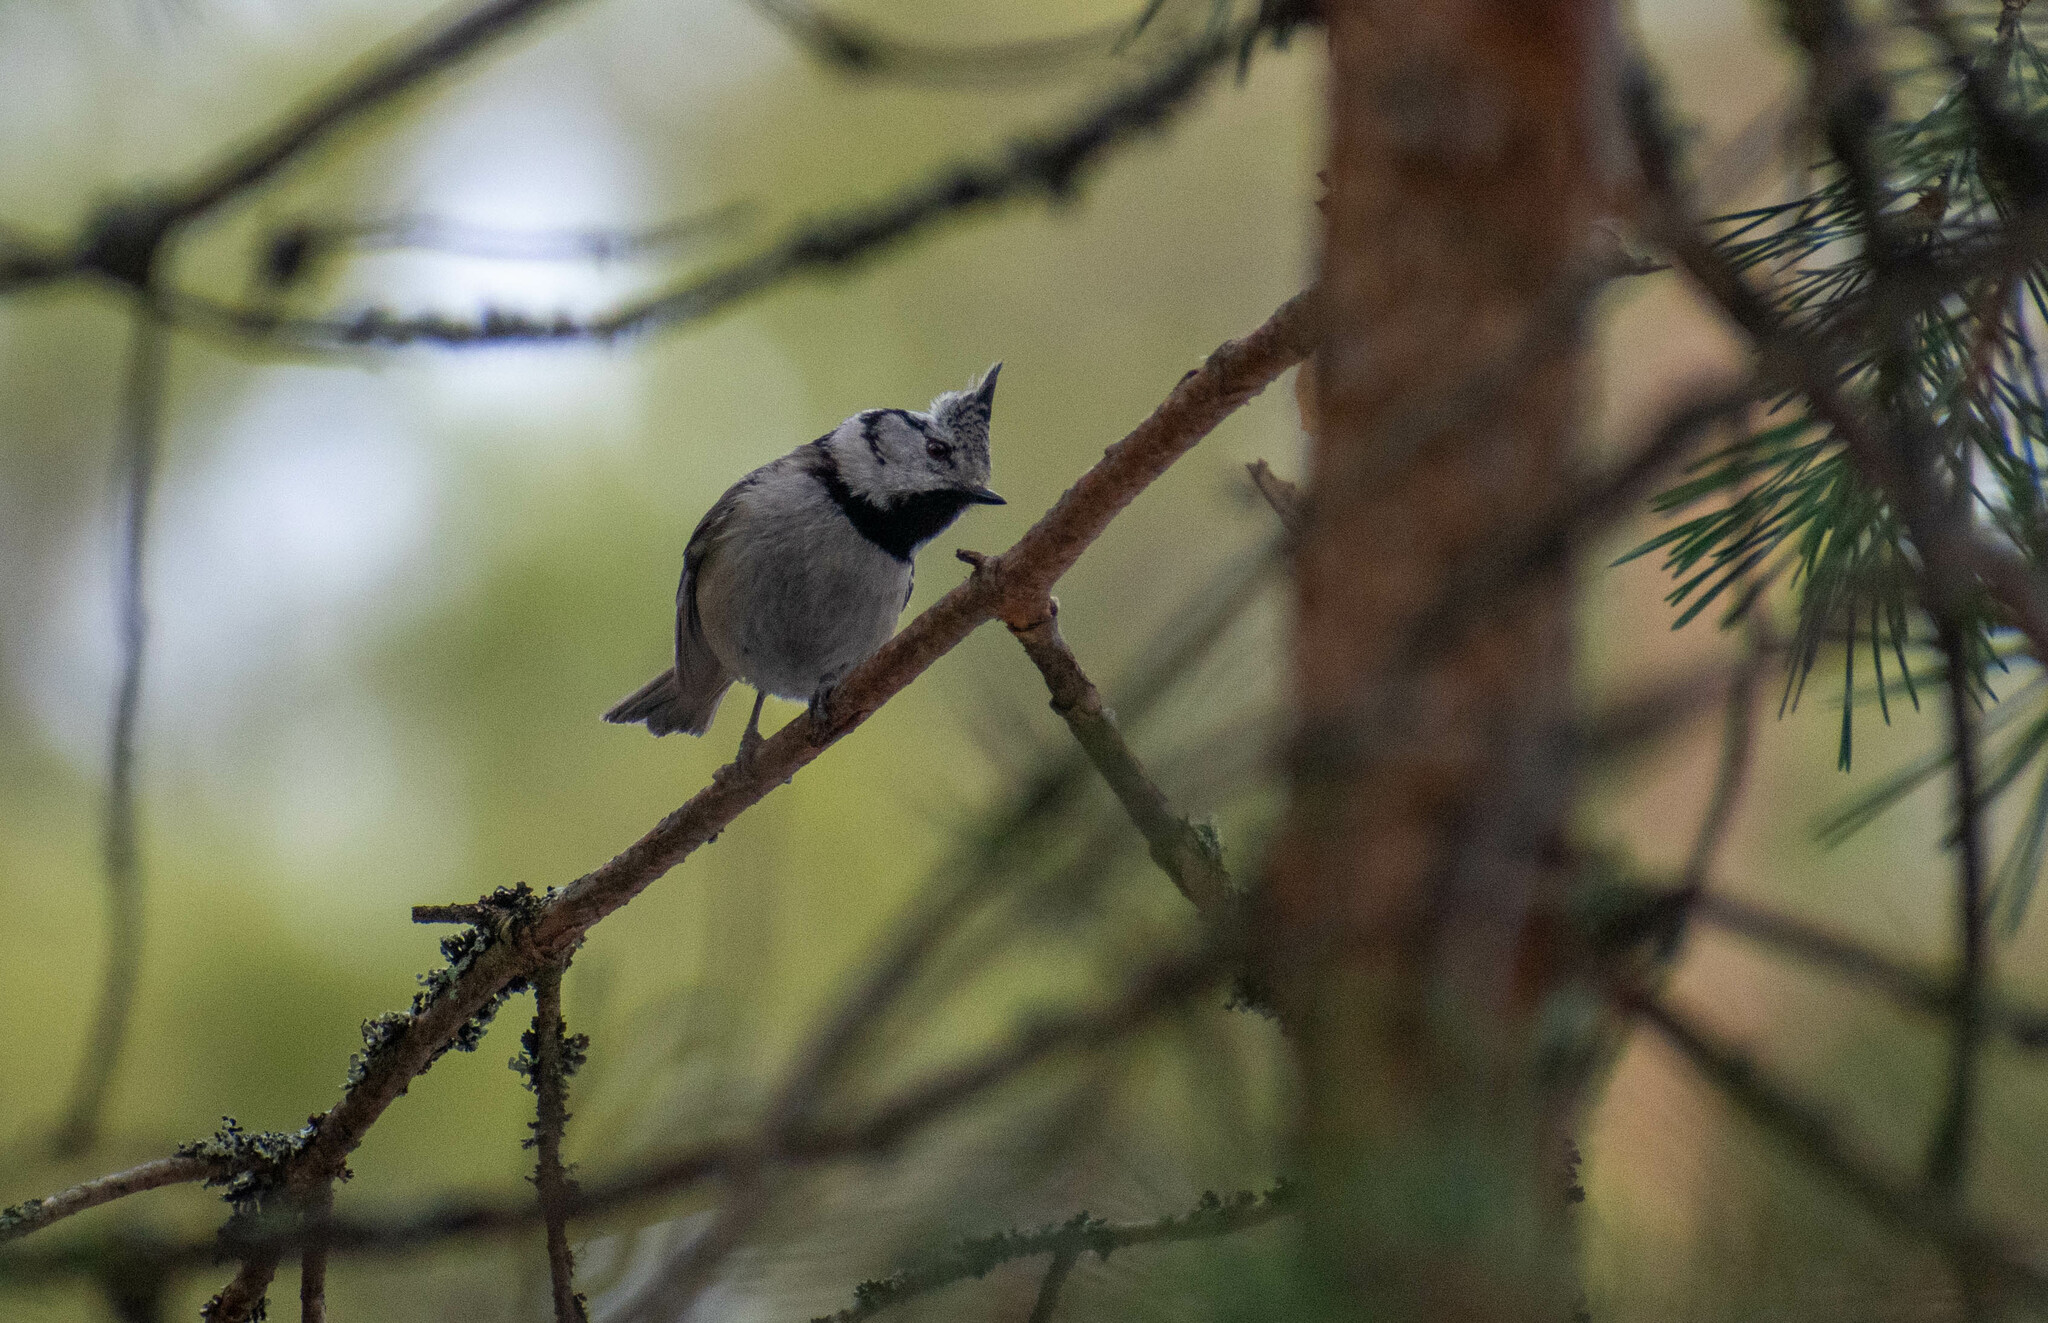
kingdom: Animalia
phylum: Chordata
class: Aves
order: Passeriformes
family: Paridae
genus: Lophophanes
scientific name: Lophophanes cristatus
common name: European crested tit
